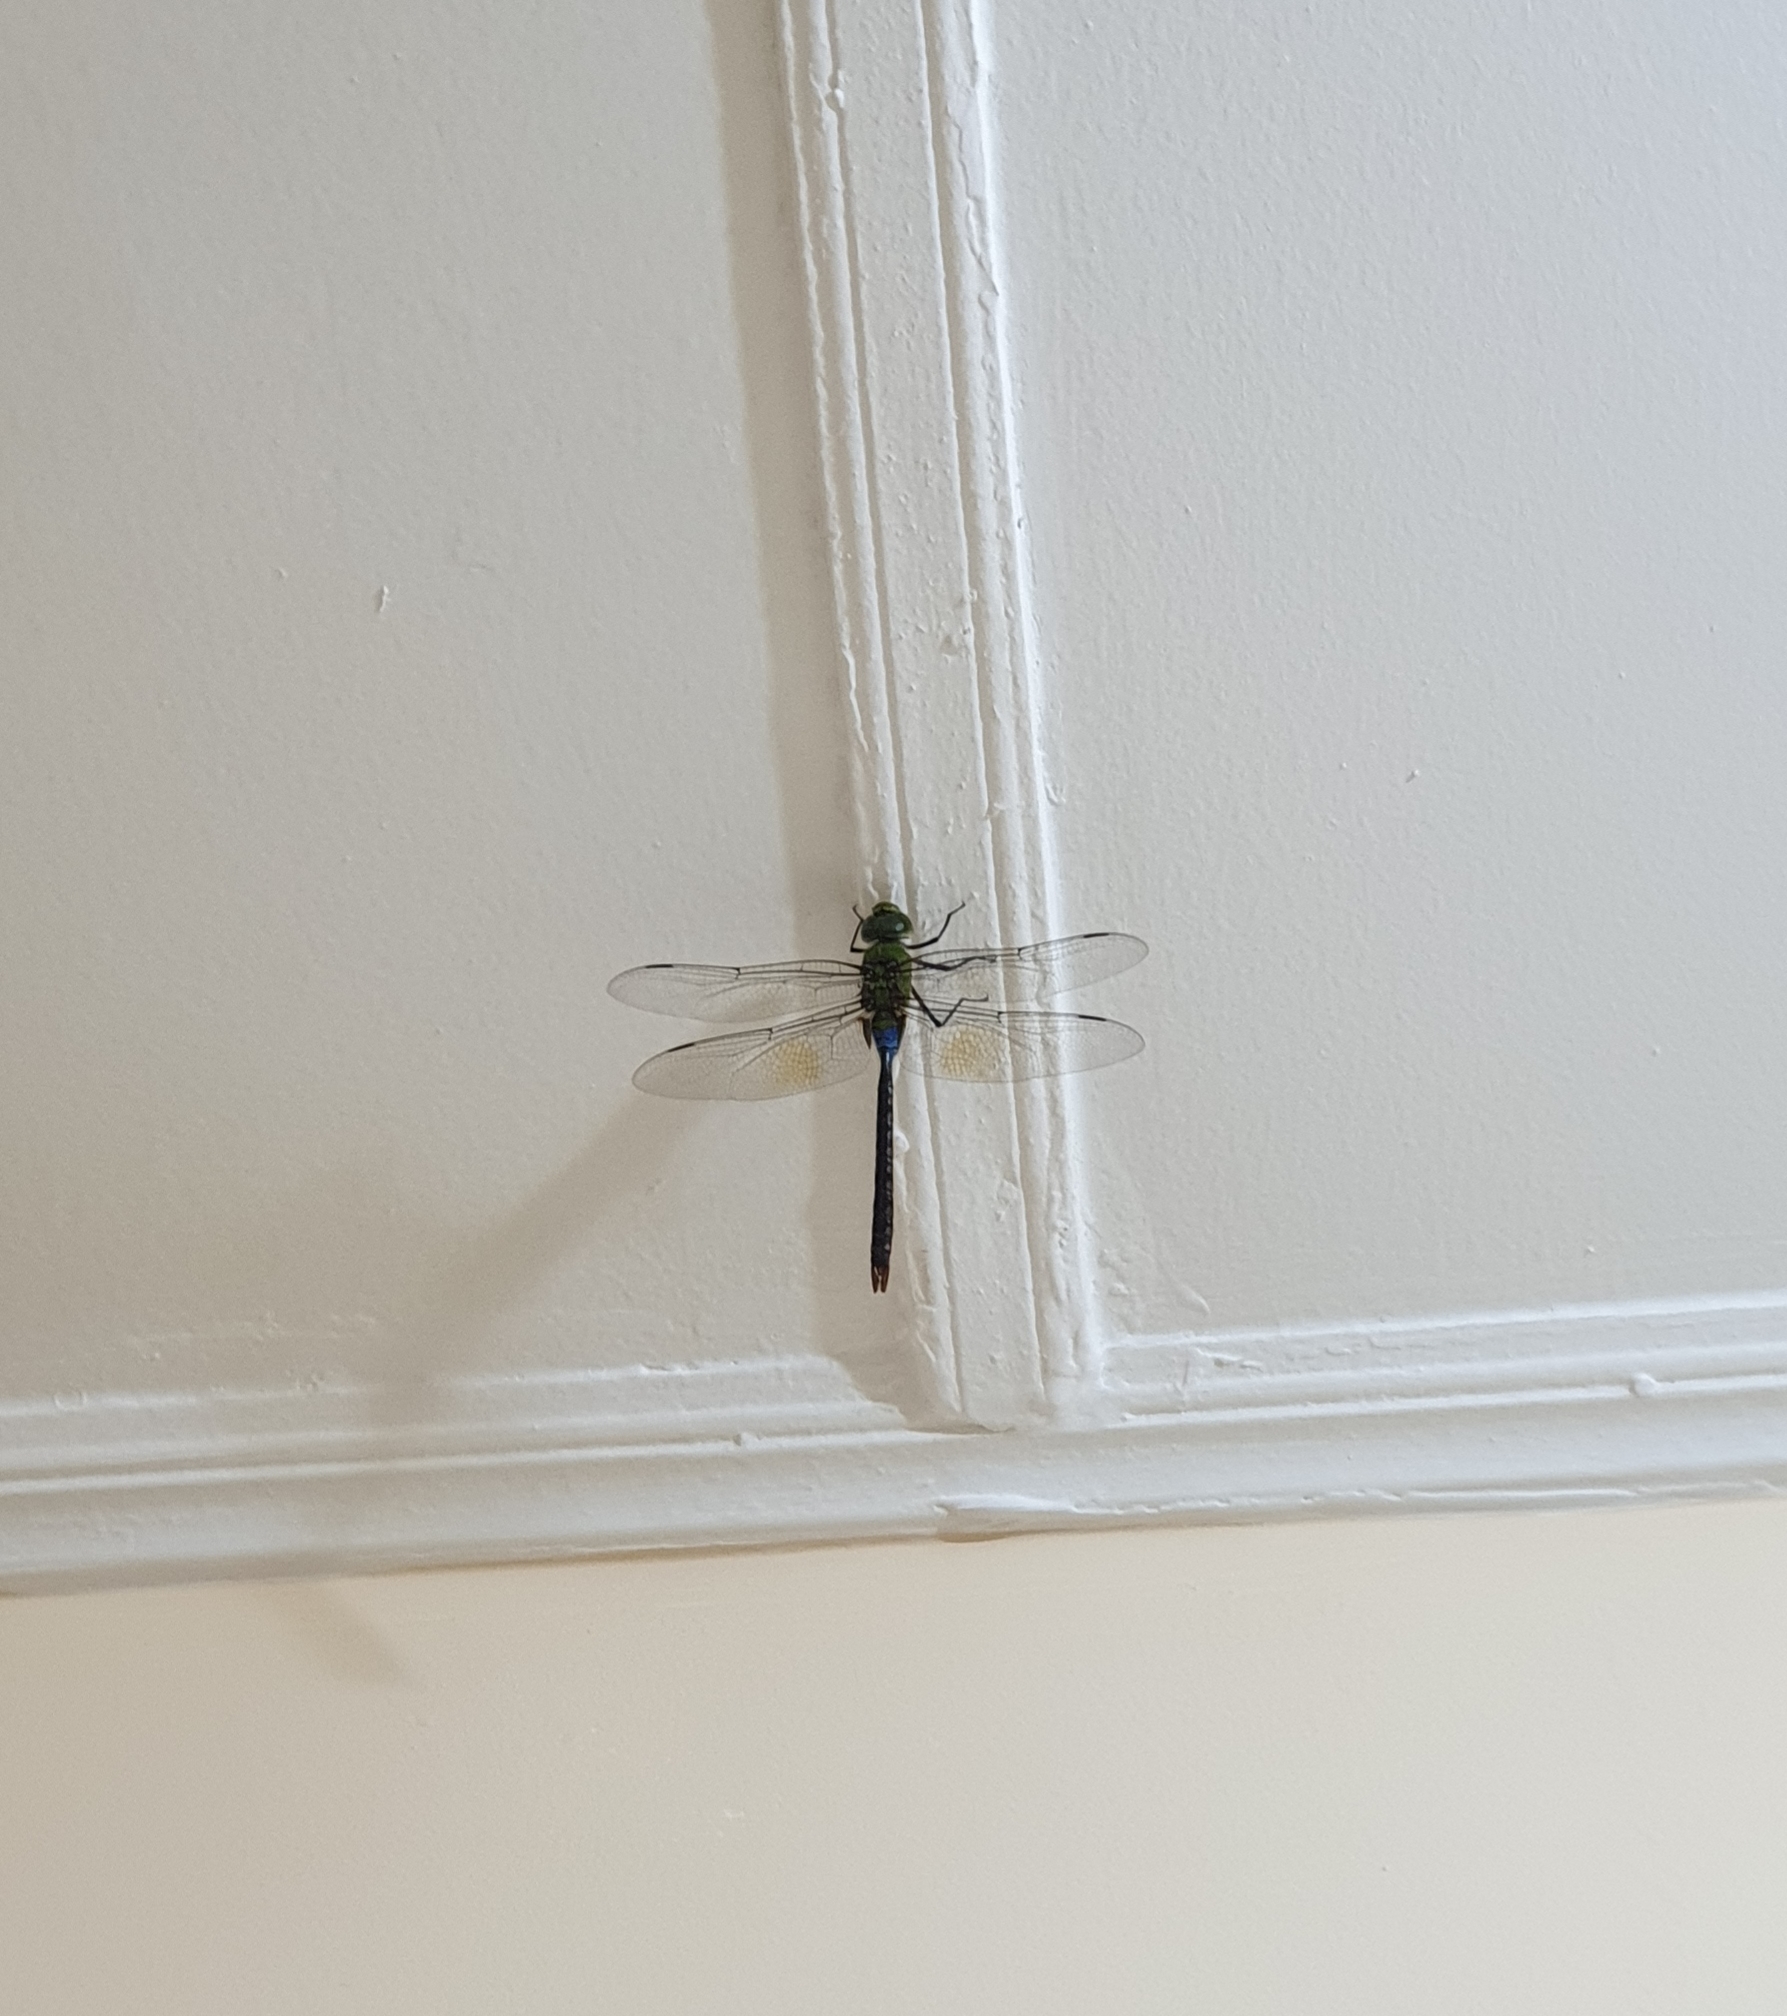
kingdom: Animalia
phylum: Arthropoda
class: Insecta
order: Odonata
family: Aeshnidae
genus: Anax
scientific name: Anax guttatus
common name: Emperor
